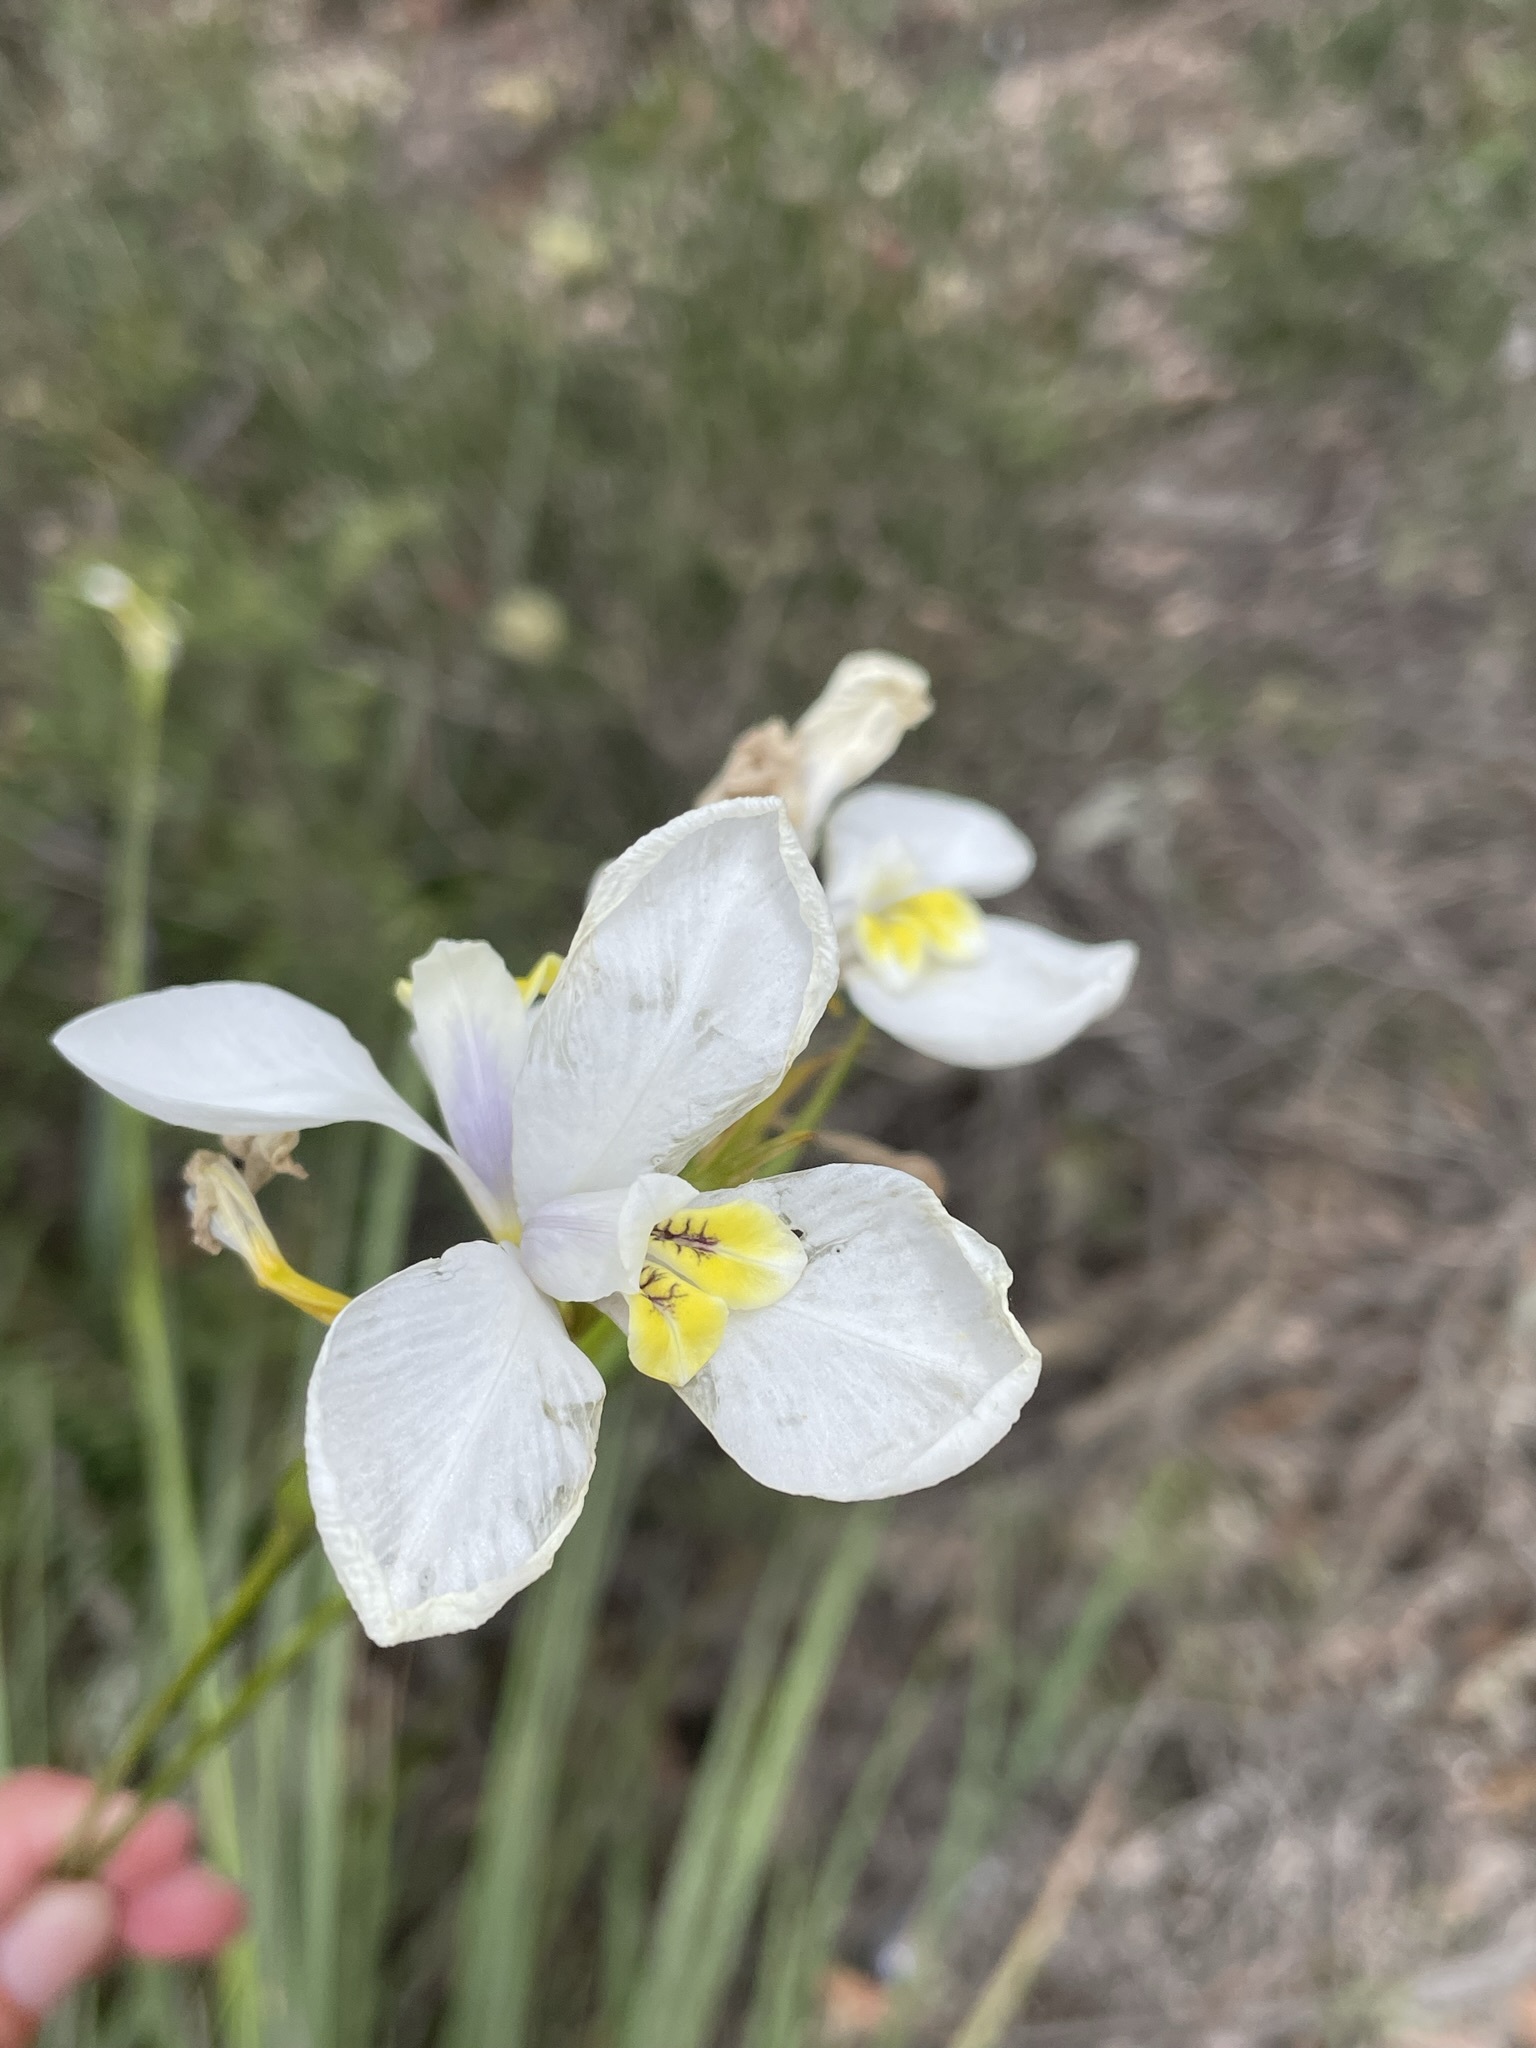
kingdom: Plantae
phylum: Tracheophyta
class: Liliopsida
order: Asparagales
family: Iridaceae
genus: Diplarrena
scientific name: Diplarrena moraea
